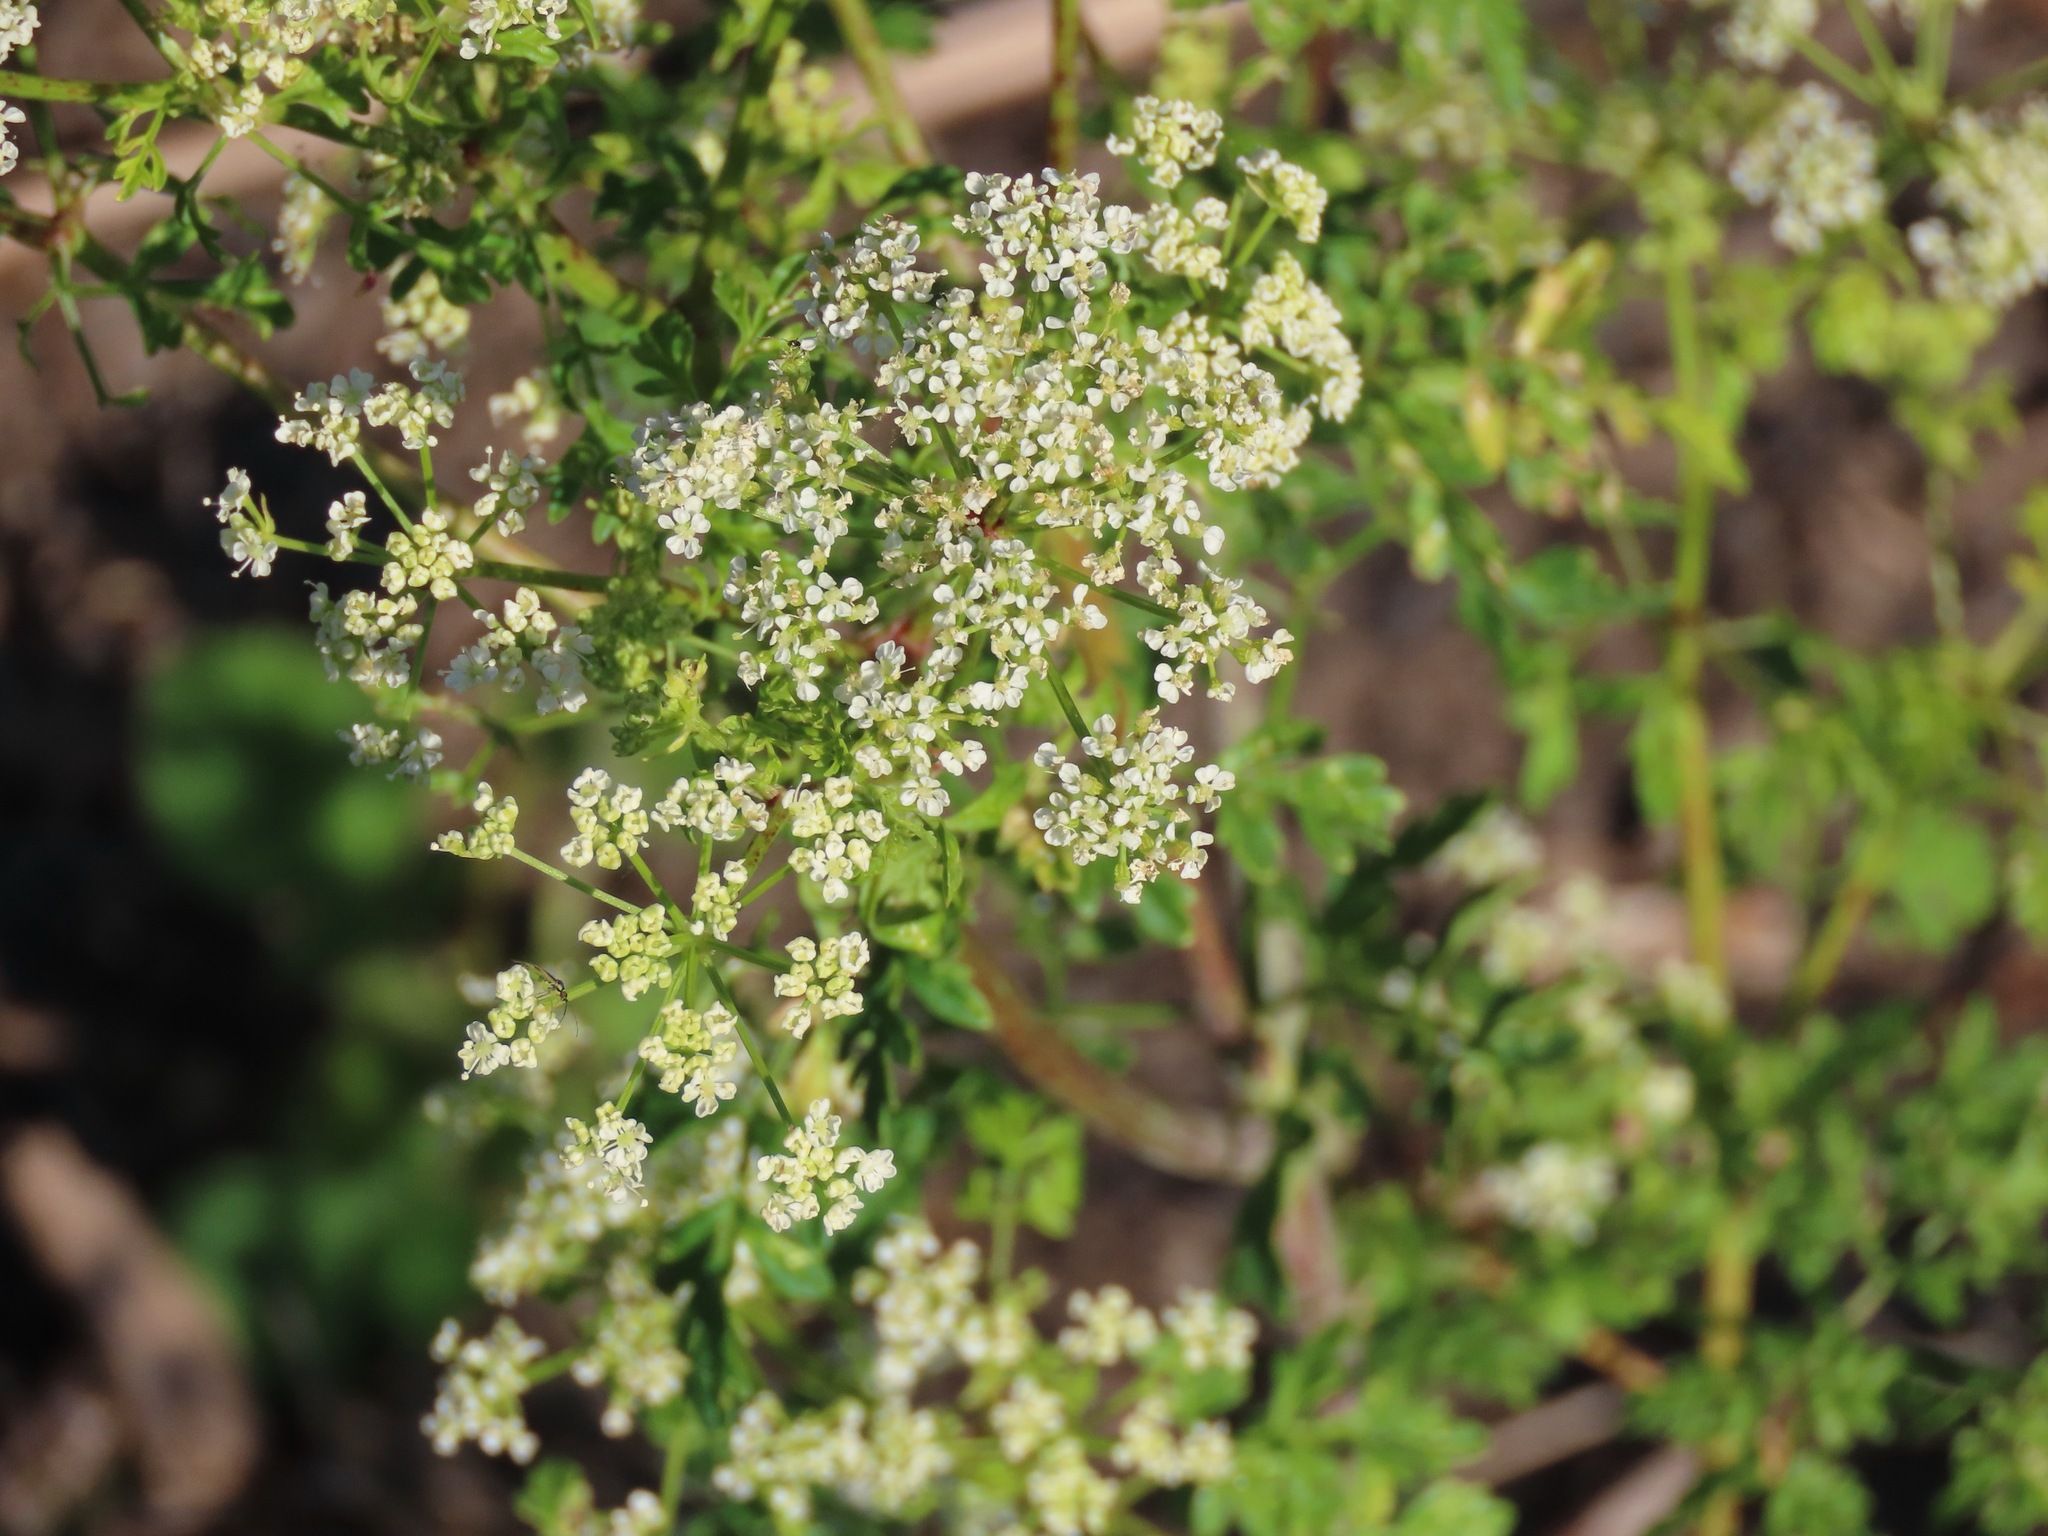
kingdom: Plantae
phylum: Tracheophyta
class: Magnoliopsida
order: Apiales
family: Apiaceae
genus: Conium
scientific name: Conium maculatum
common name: Hemlock
